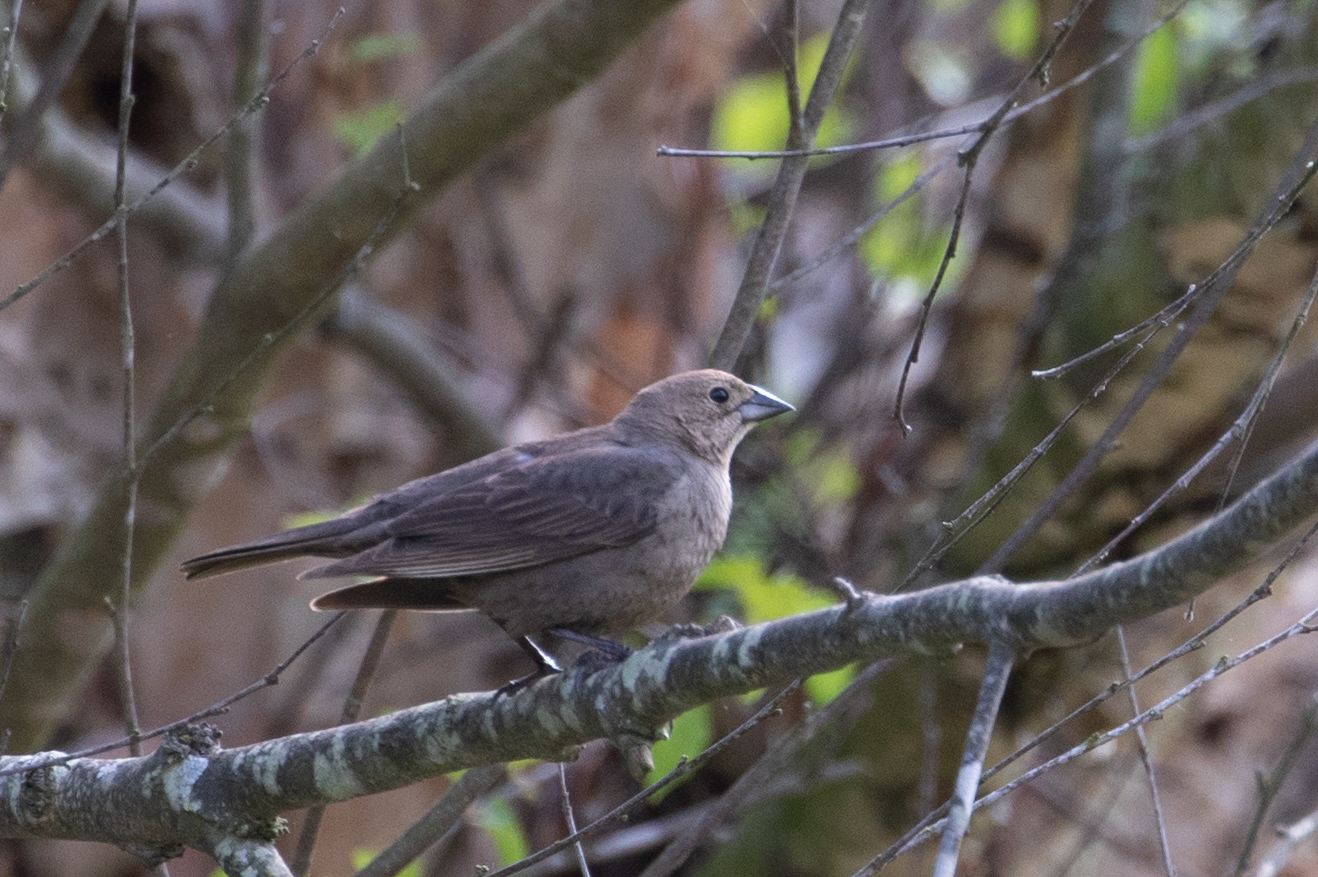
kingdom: Animalia
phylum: Chordata
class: Aves
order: Passeriformes
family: Icteridae
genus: Molothrus
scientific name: Molothrus ater
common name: Brown-headed cowbird
